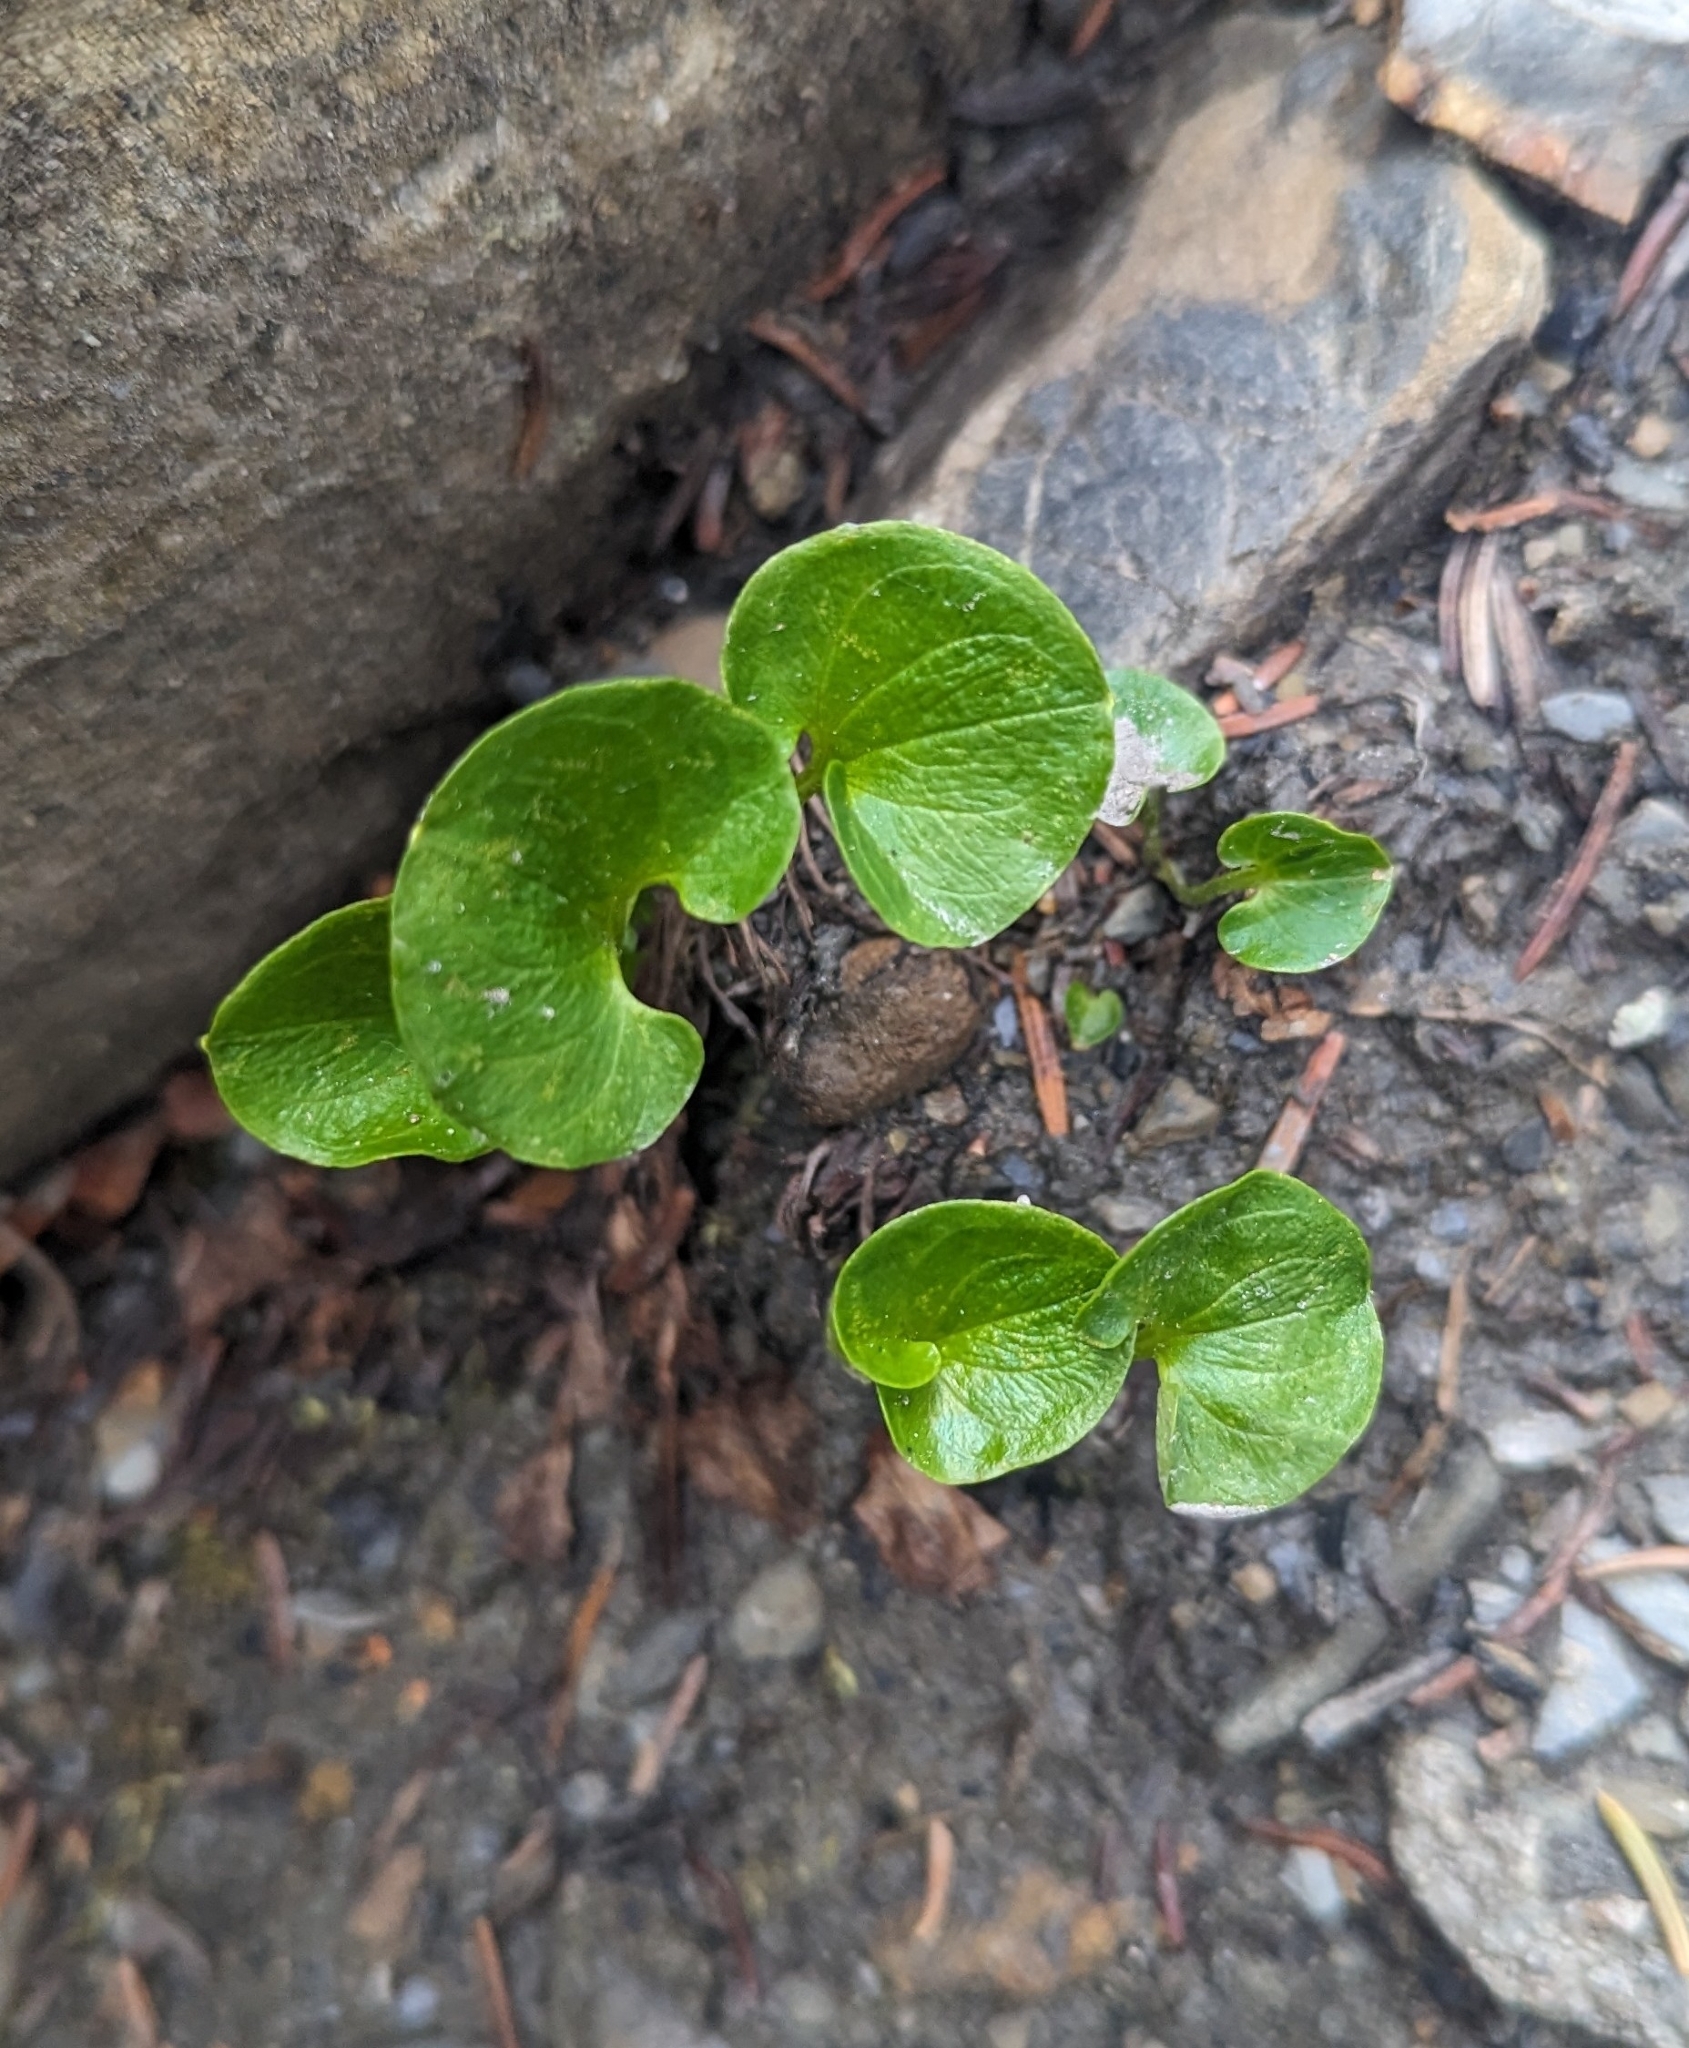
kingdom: Plantae
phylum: Tracheophyta
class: Magnoliopsida
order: Celastrales
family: Parnassiaceae
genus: Parnassia
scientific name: Parnassia fimbriata
